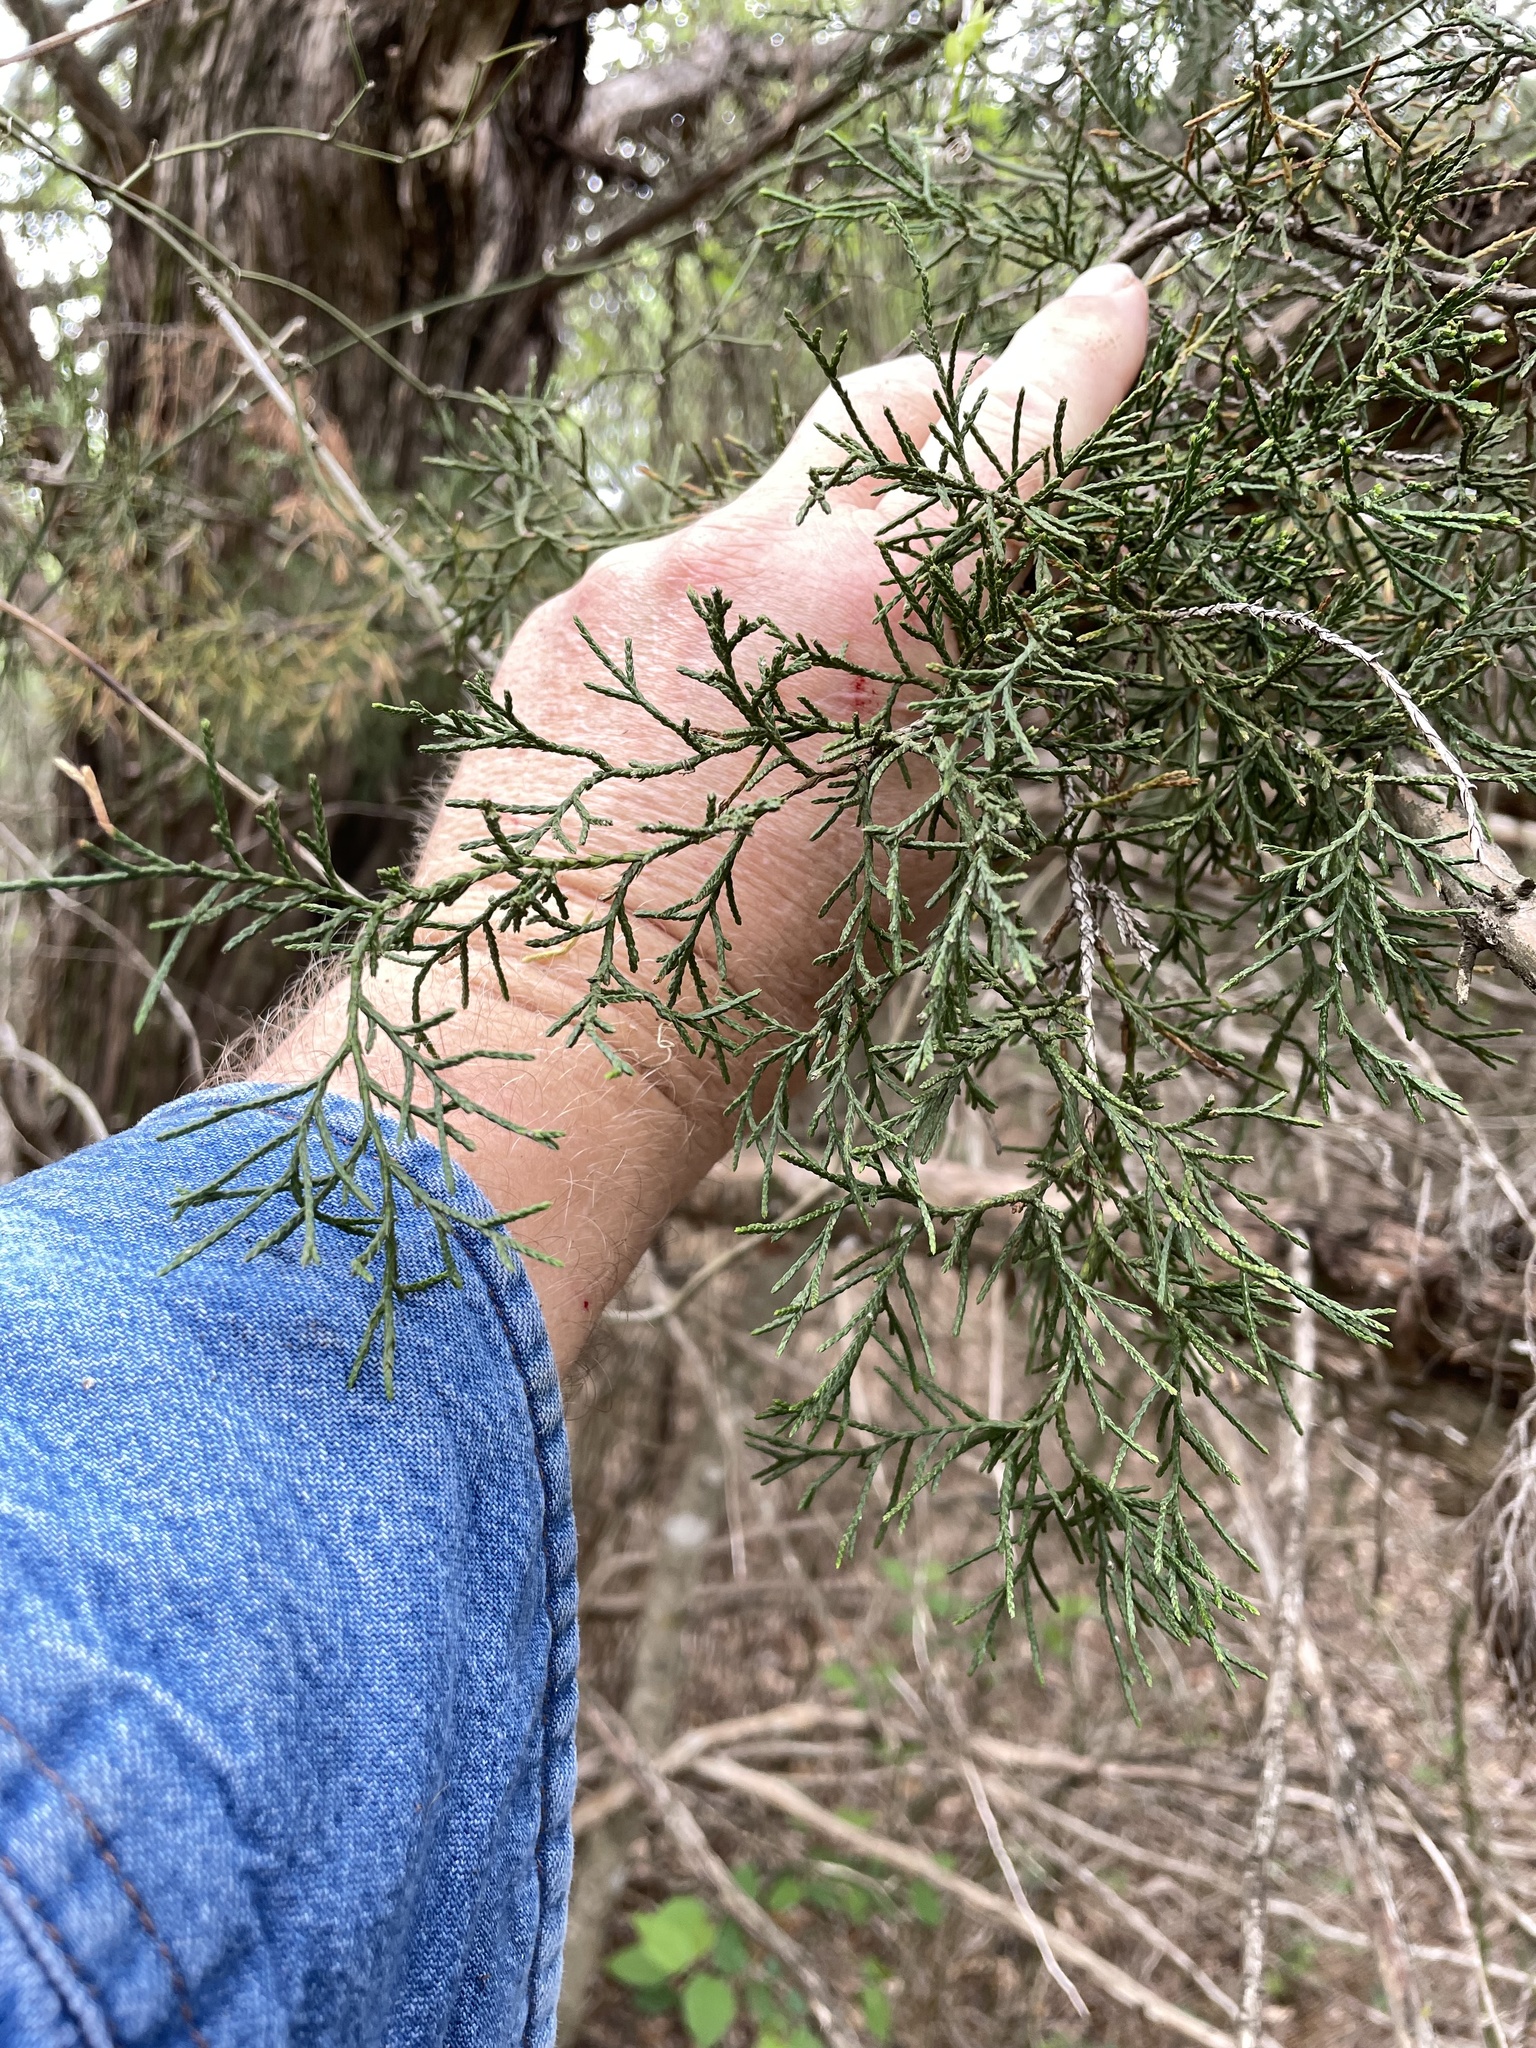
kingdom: Plantae
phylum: Tracheophyta
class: Pinopsida
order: Pinales
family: Cupressaceae
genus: Juniperus
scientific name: Juniperus virginiana
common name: Red juniper
